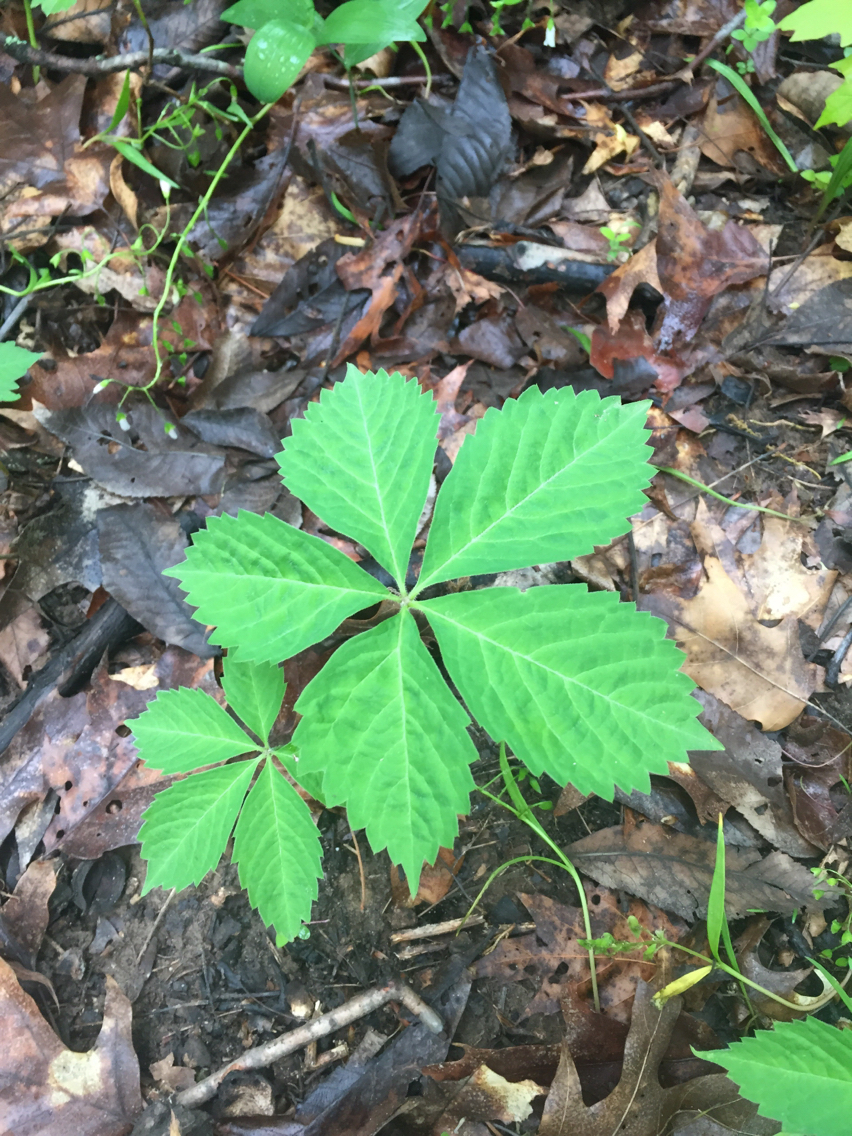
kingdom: Plantae
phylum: Tracheophyta
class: Magnoliopsida
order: Vitales
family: Vitaceae
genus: Parthenocissus
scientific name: Parthenocissus quinquefolia
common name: Virginia-creeper
